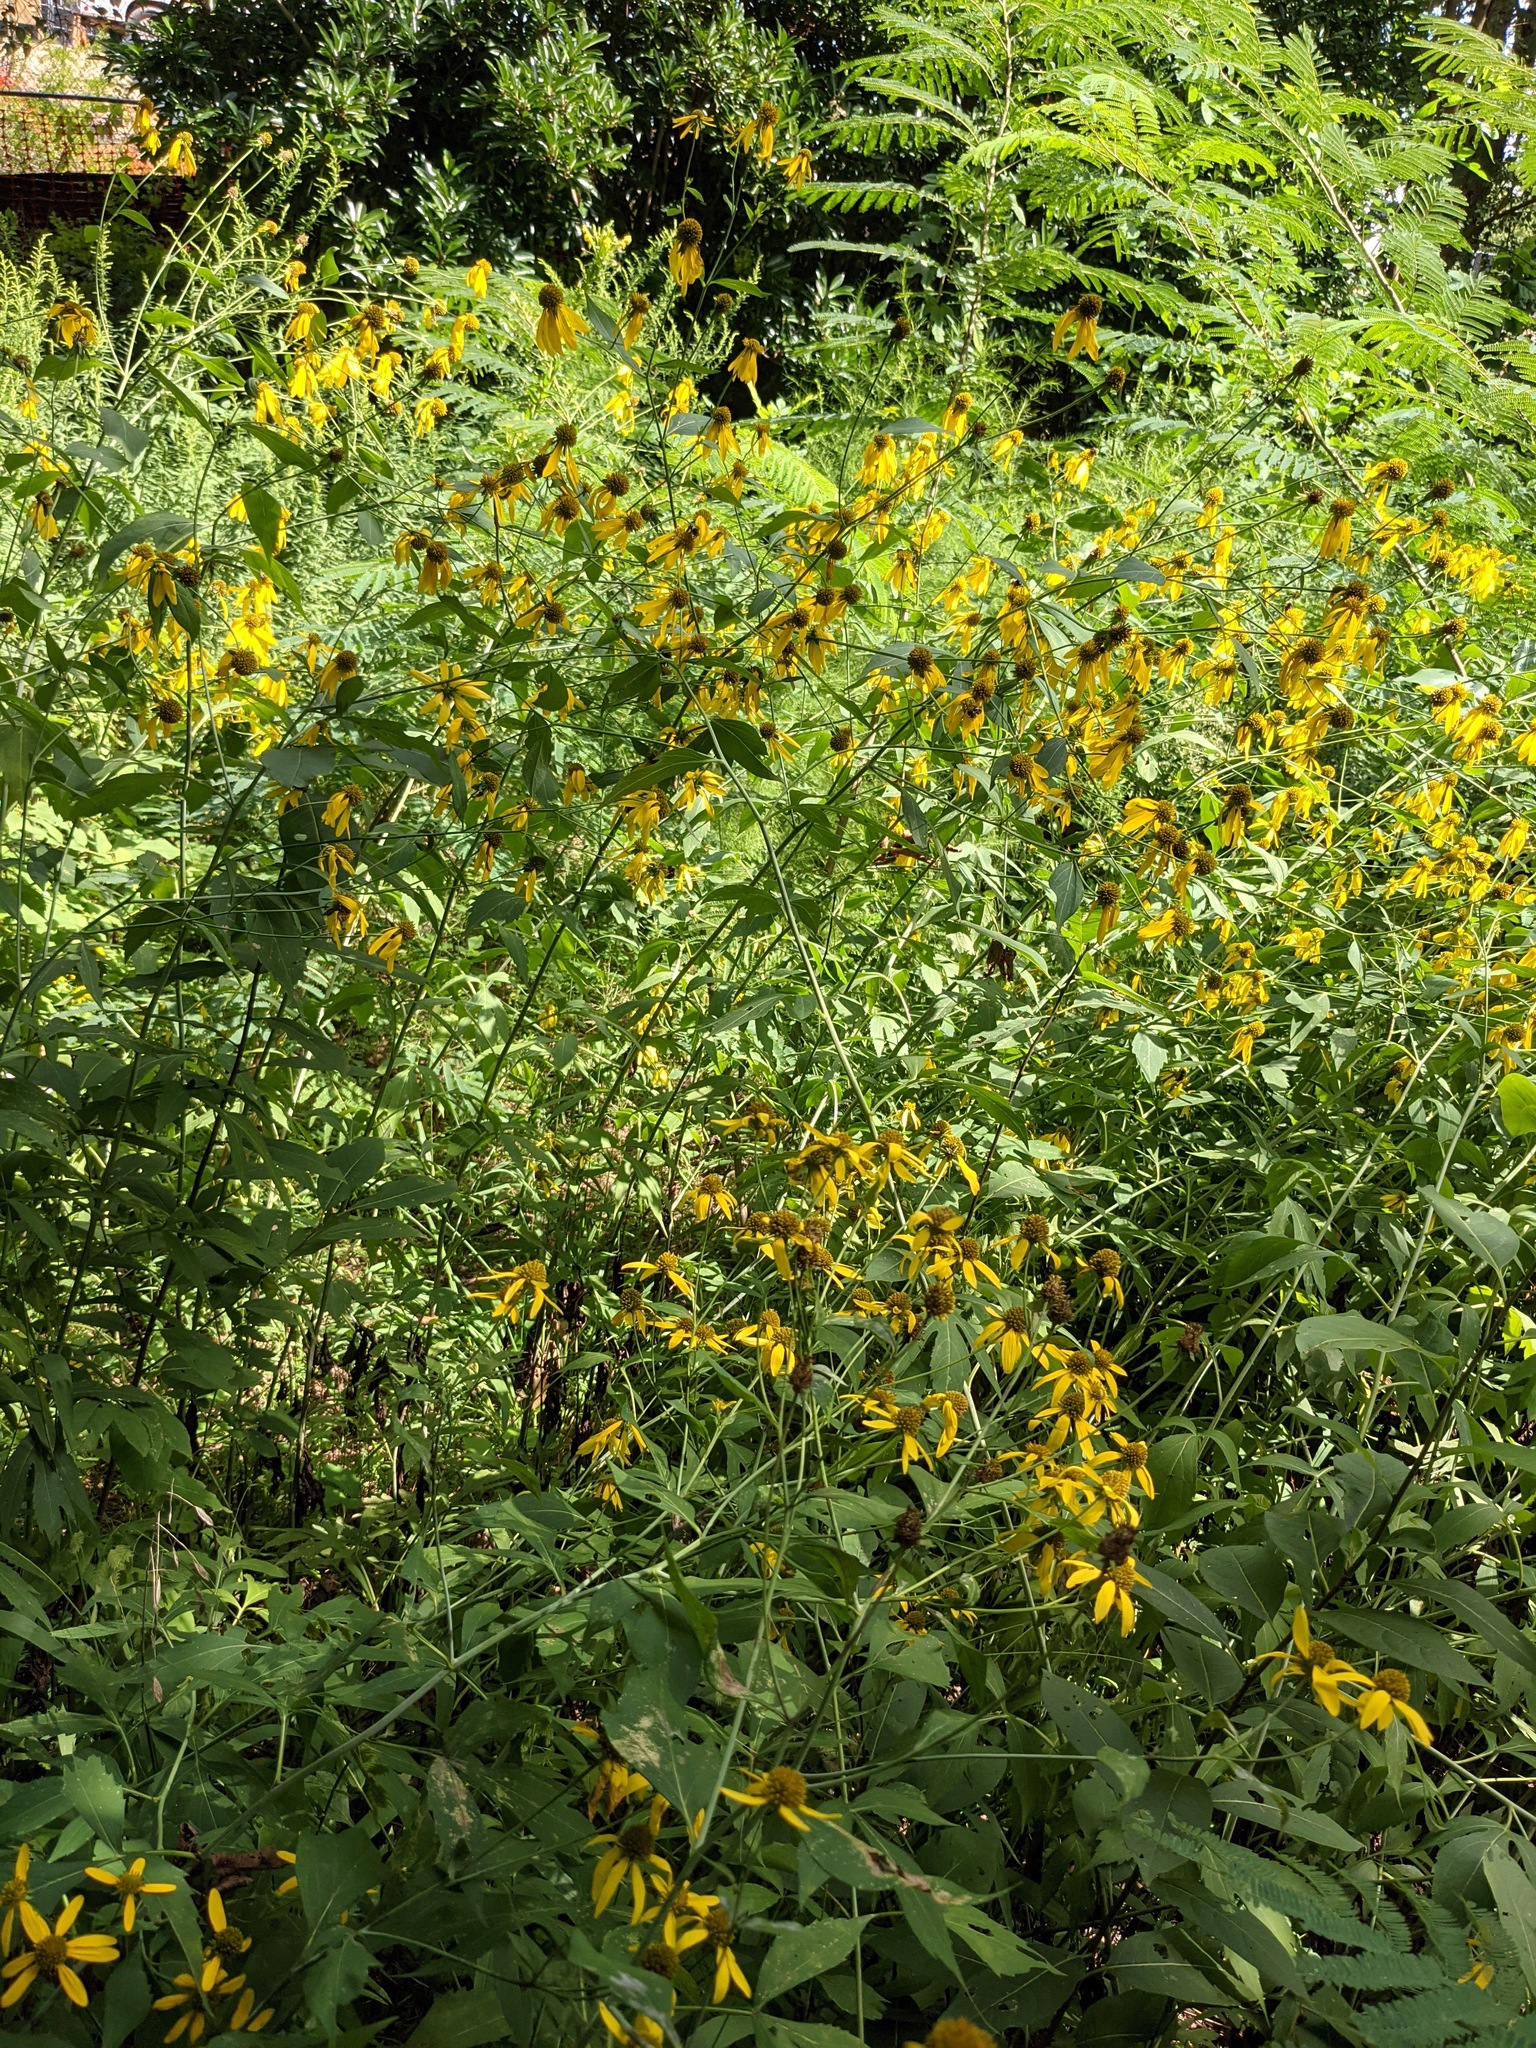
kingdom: Plantae
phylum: Tracheophyta
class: Magnoliopsida
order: Asterales
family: Asteraceae
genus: Rudbeckia
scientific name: Rudbeckia laciniata
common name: Coneflower
